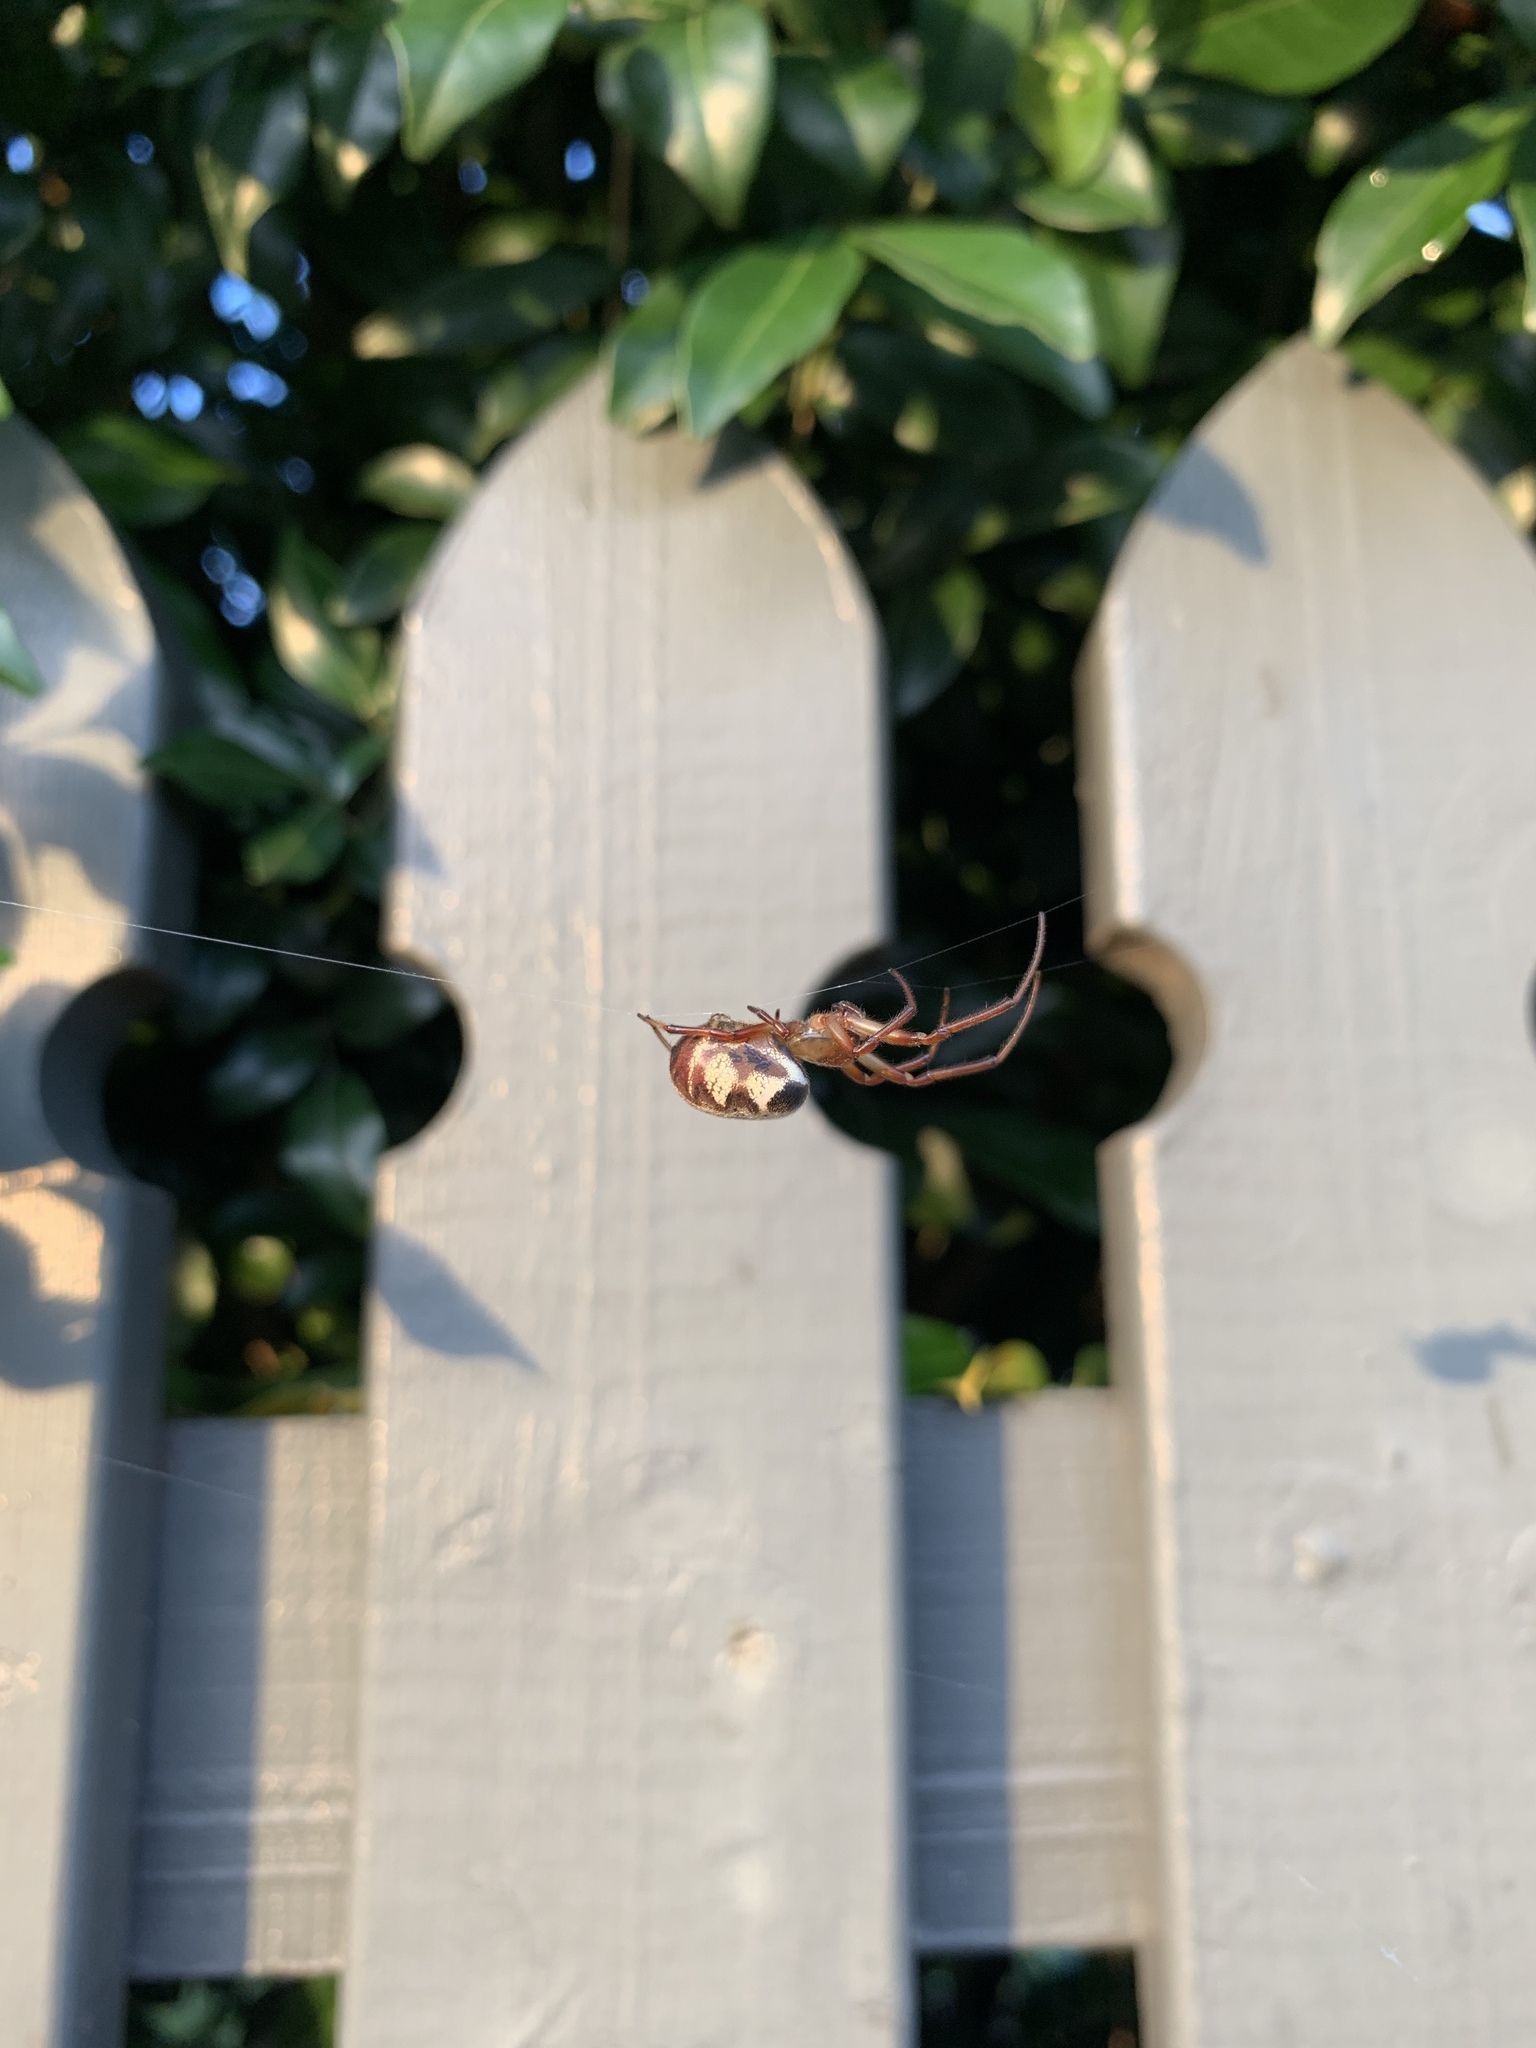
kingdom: Animalia
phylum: Arthropoda
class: Arachnida
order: Araneae
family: Araneidae
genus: Phonognatha
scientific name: Phonognatha graeffei
